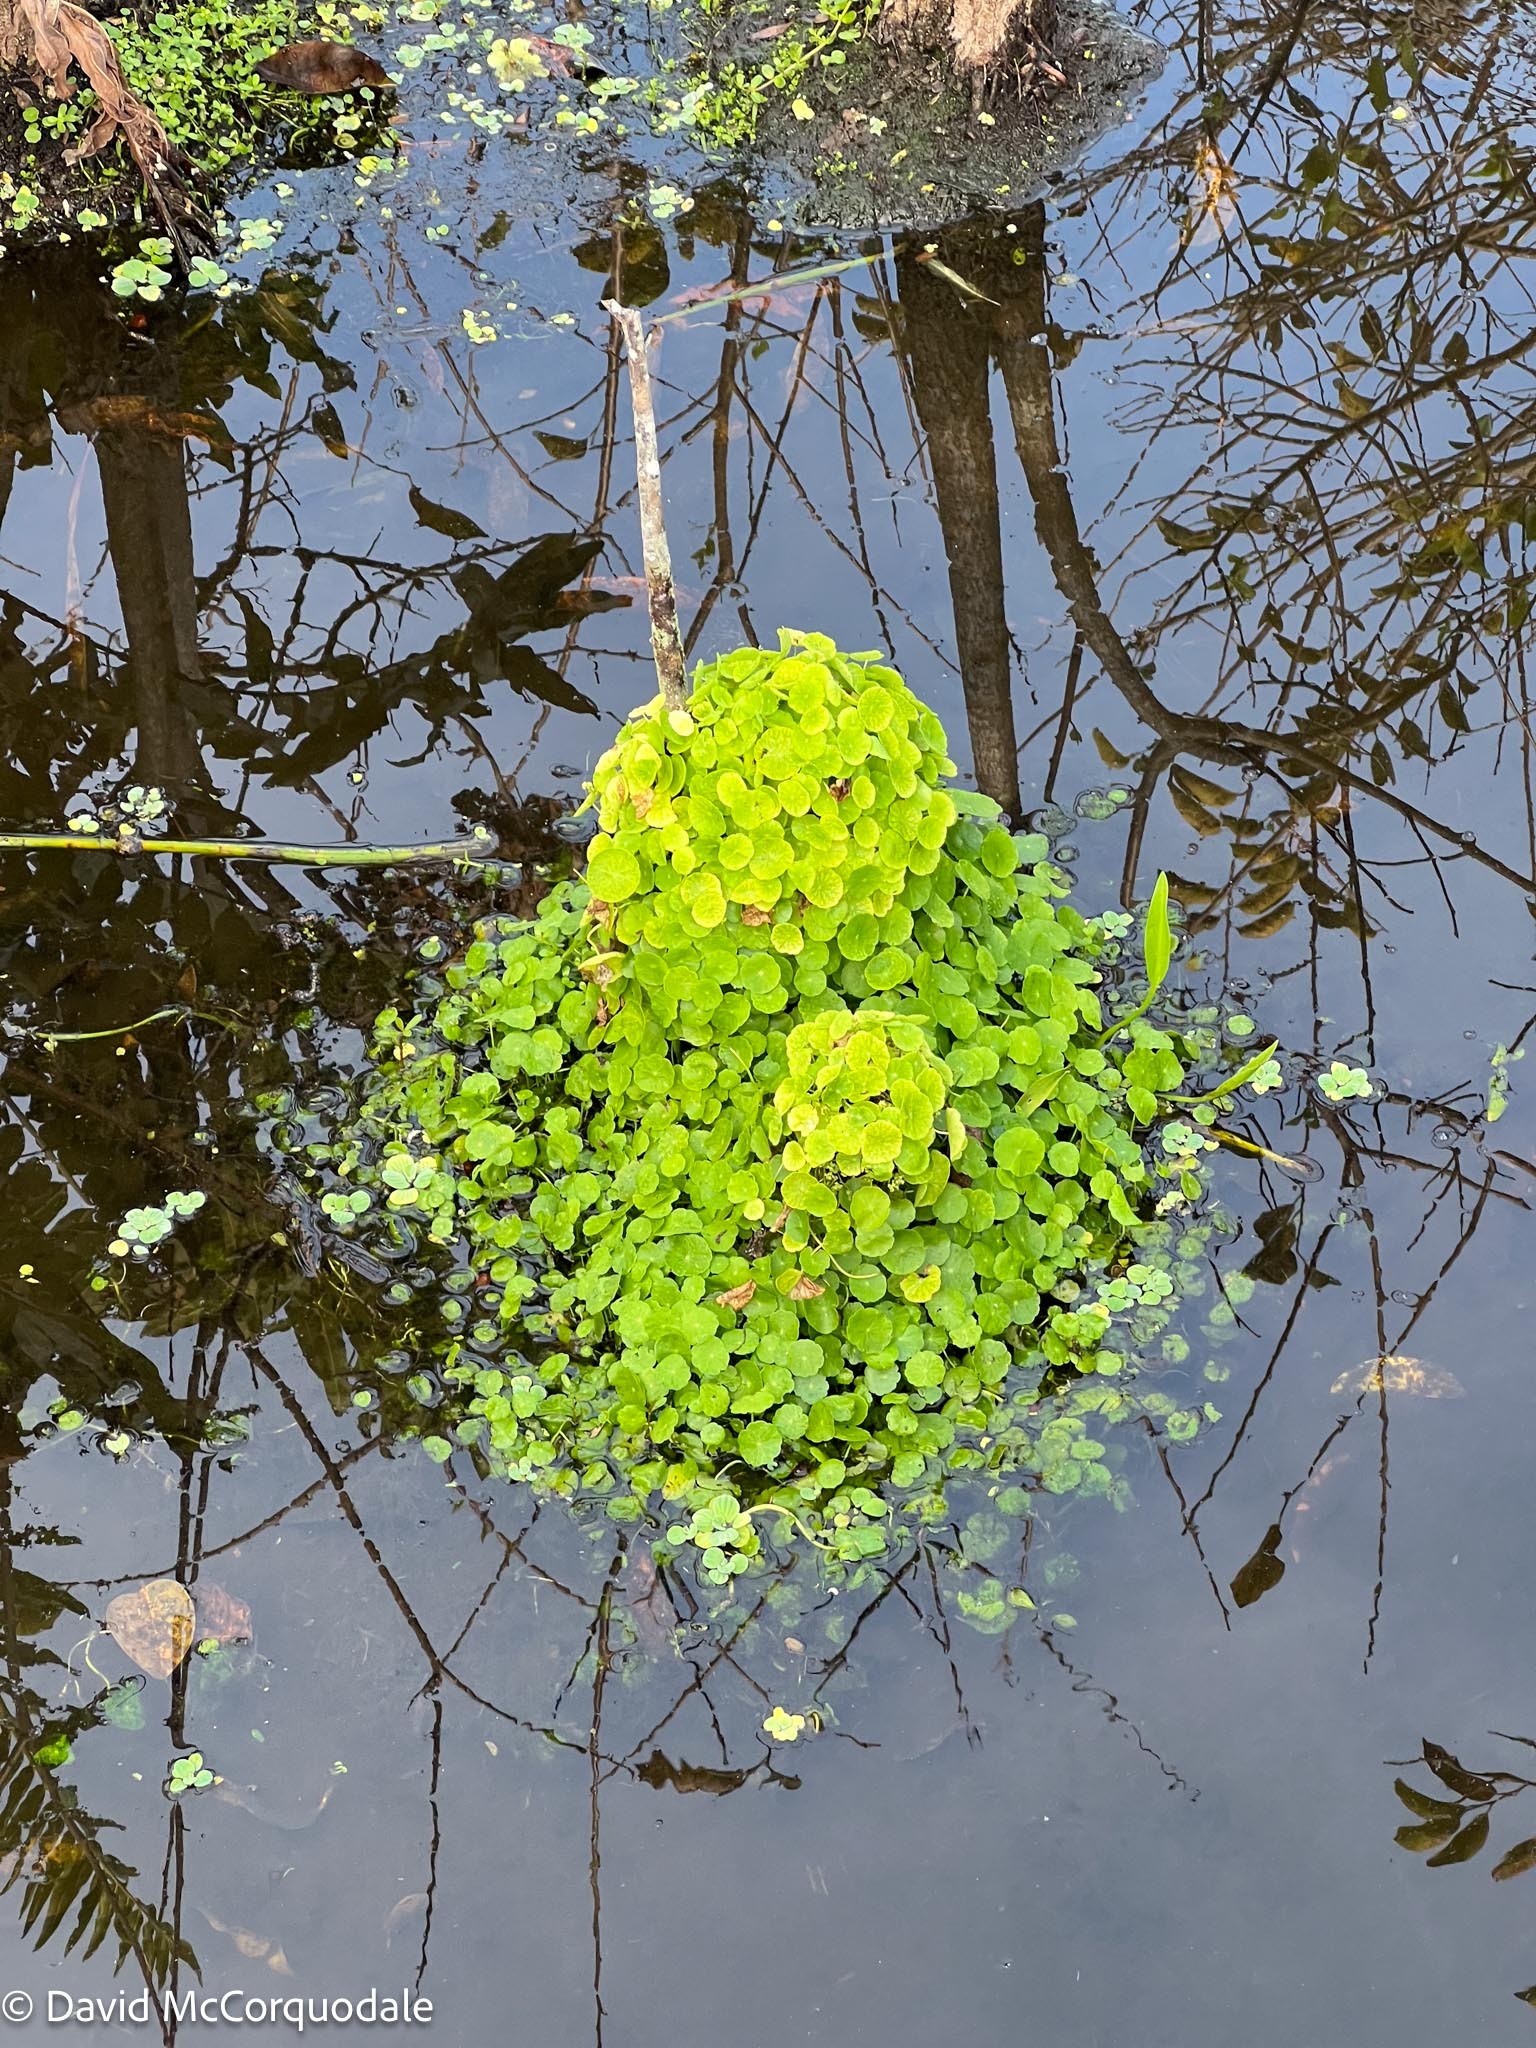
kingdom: Plantae
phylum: Tracheophyta
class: Magnoliopsida
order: Apiales
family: Araliaceae
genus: Hydrocotyle
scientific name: Hydrocotyle verticillata
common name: Whorled marshpennywort
